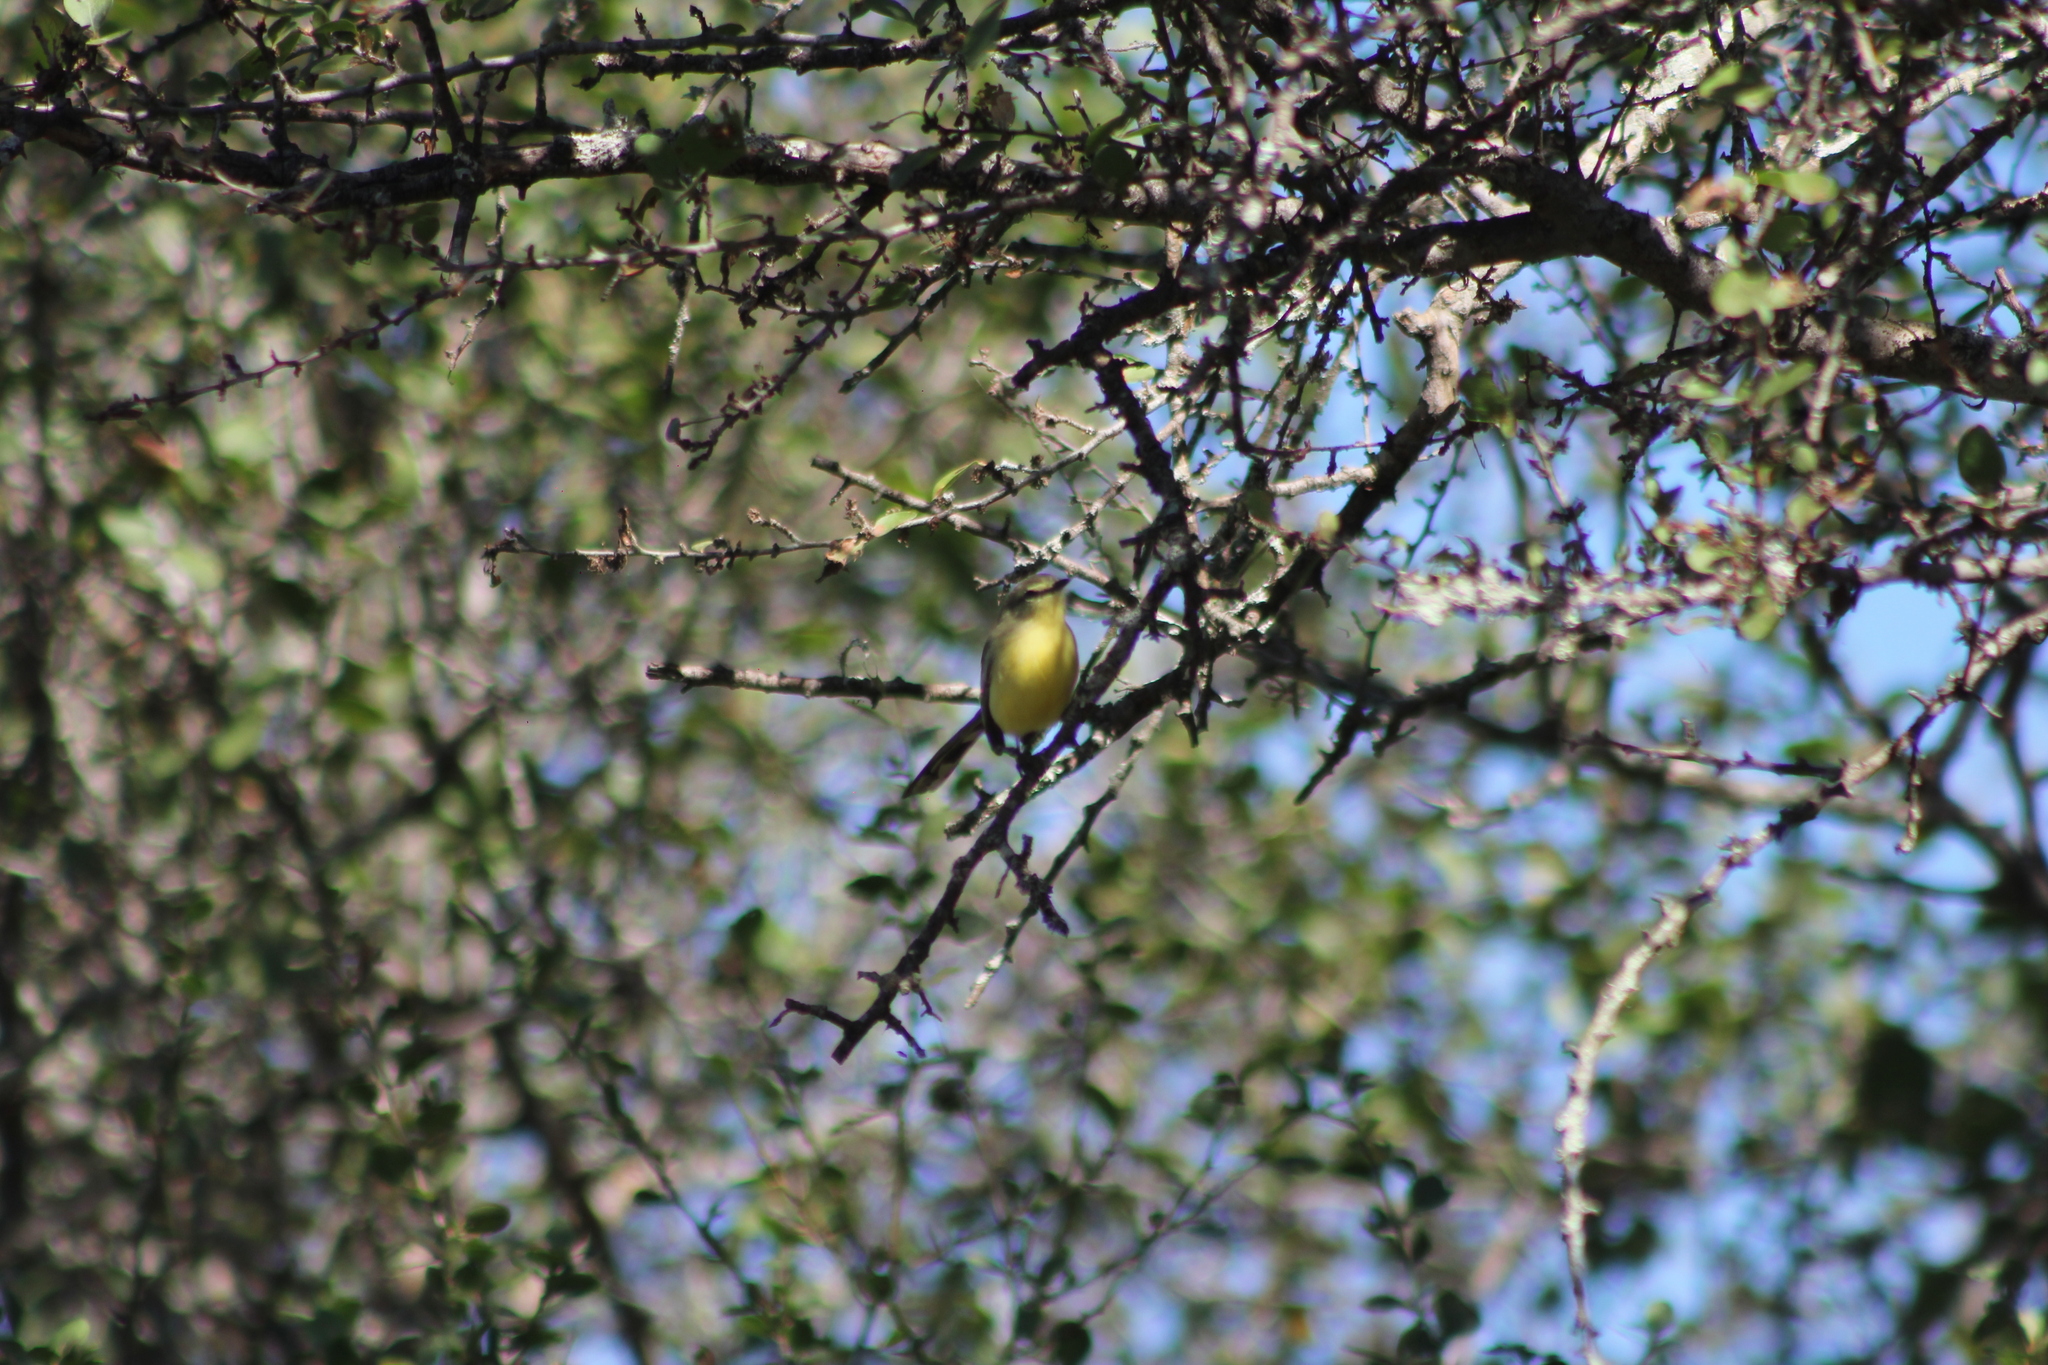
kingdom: Animalia
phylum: Chordata
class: Aves
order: Passeriformes
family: Tyrannidae
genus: Stigmatura
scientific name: Stigmatura budytoides
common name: Greater wagtail-tyrant
